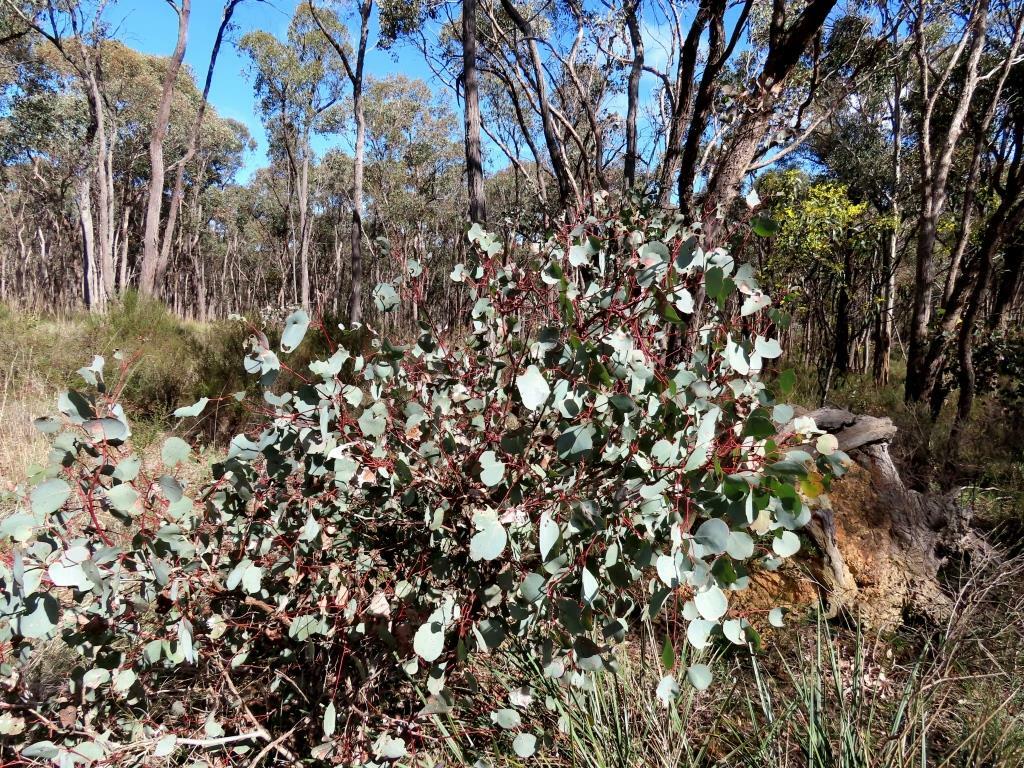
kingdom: Plantae
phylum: Tracheophyta
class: Magnoliopsida
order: Myrtales
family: Myrtaceae
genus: Eucalyptus
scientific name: Eucalyptus polyanthemos
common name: Red-box
